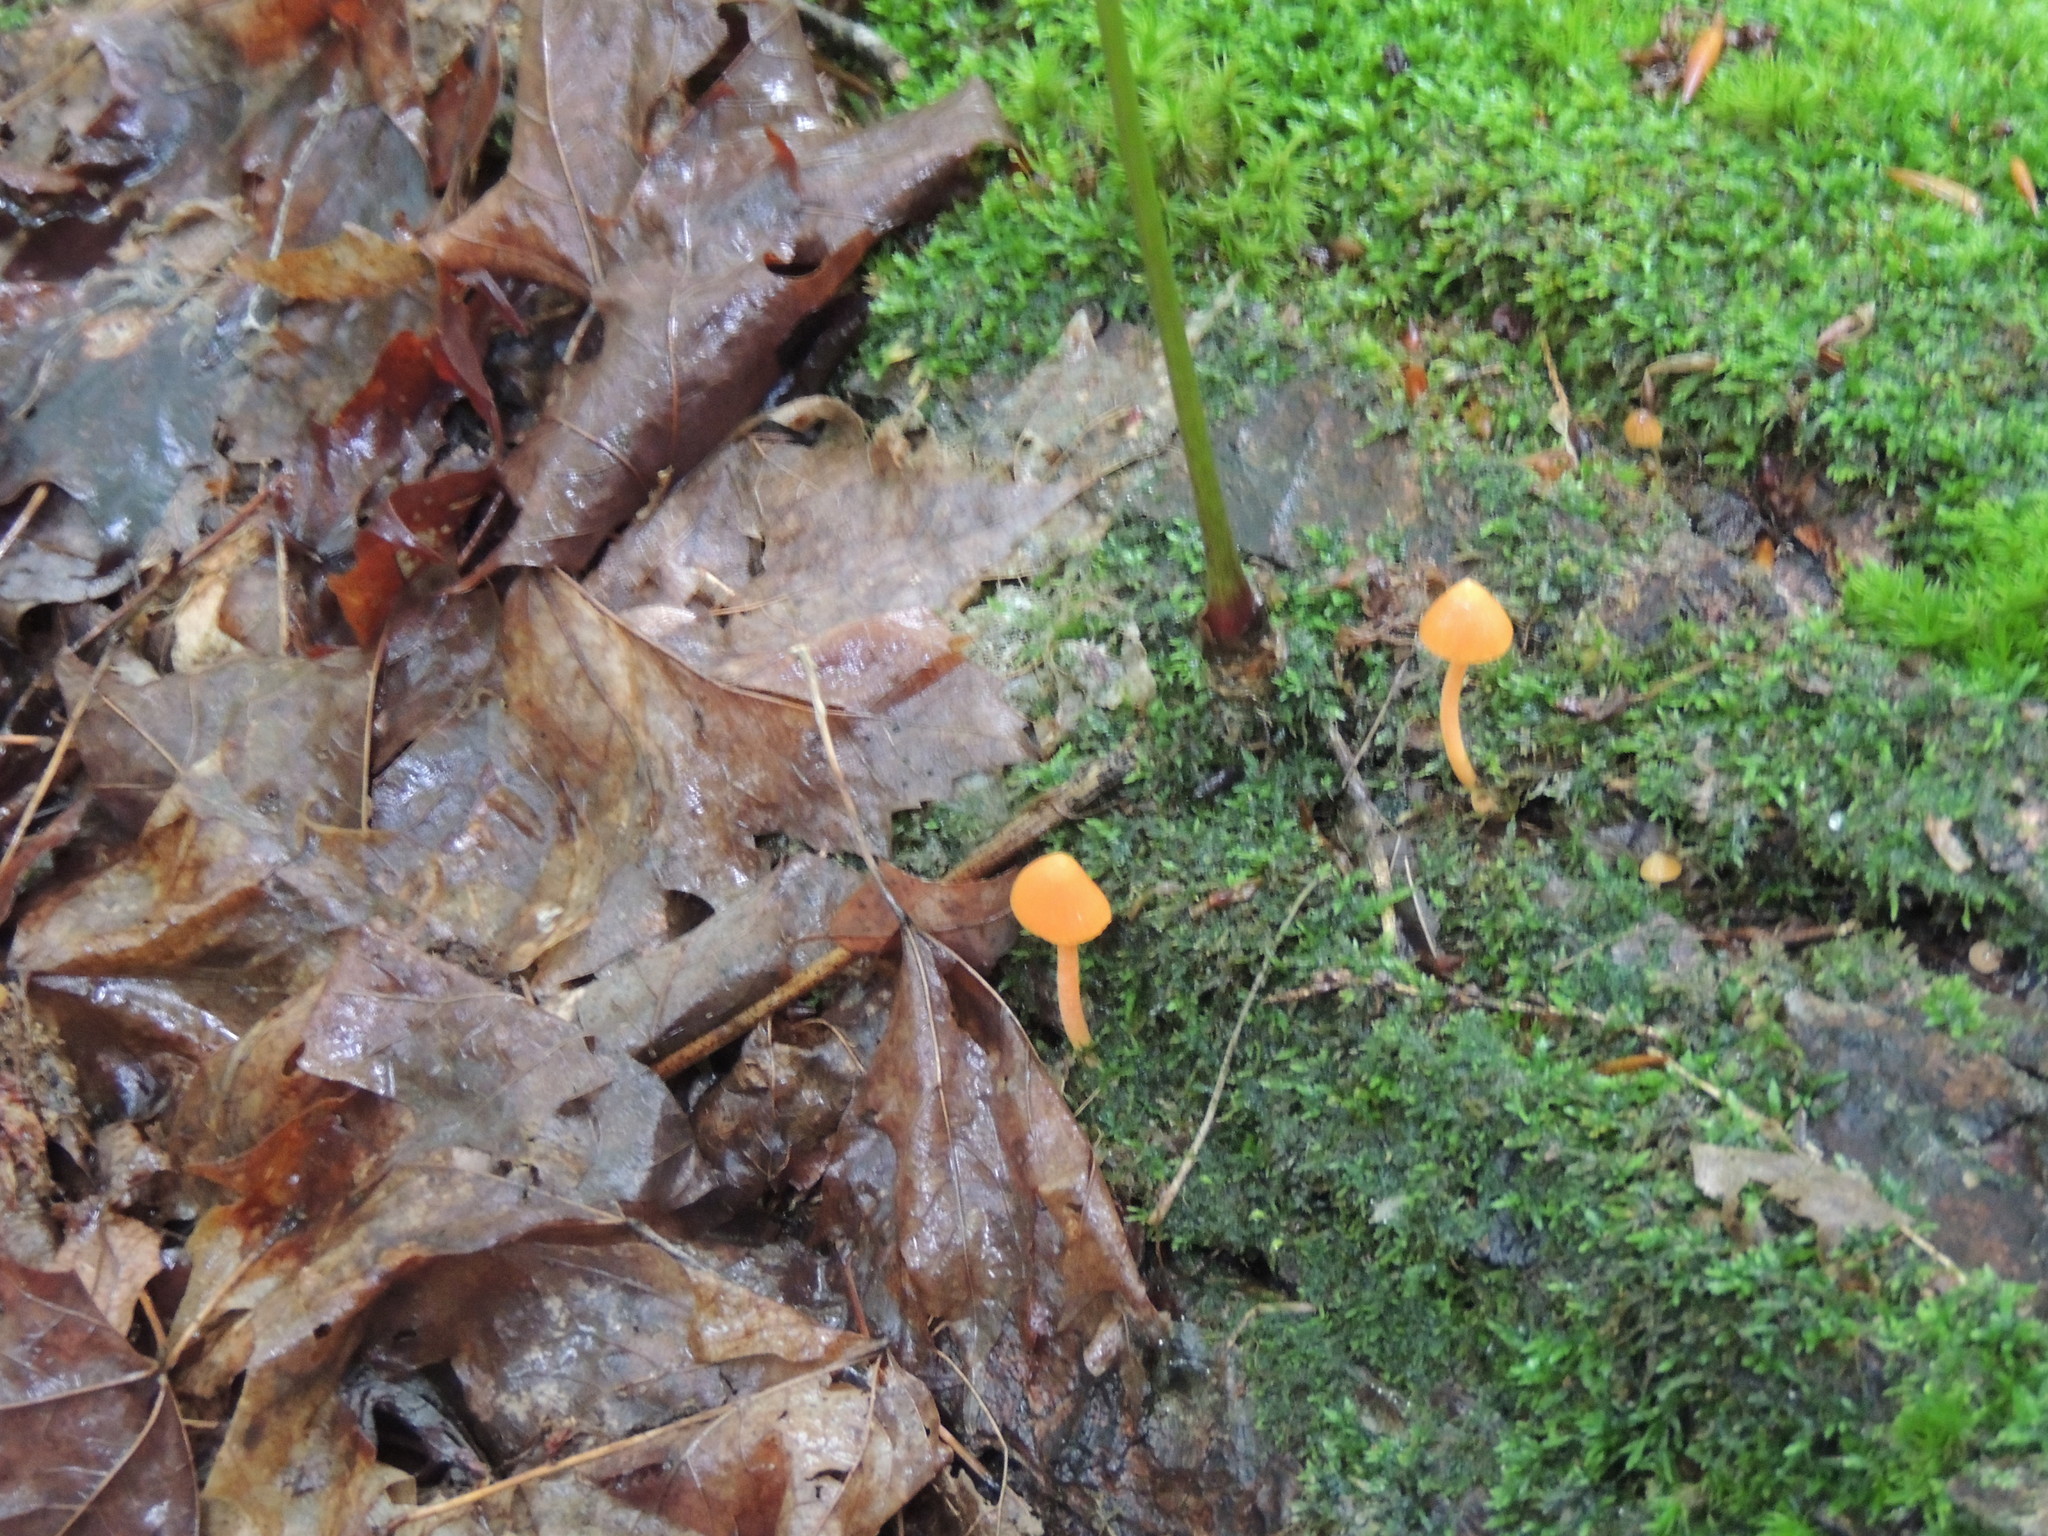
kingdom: Fungi
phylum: Basidiomycota
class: Agaricomycetes
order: Agaricales
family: Entolomataceae
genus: Entoloma
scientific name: Entoloma quadratum
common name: Salmon pinkgill
